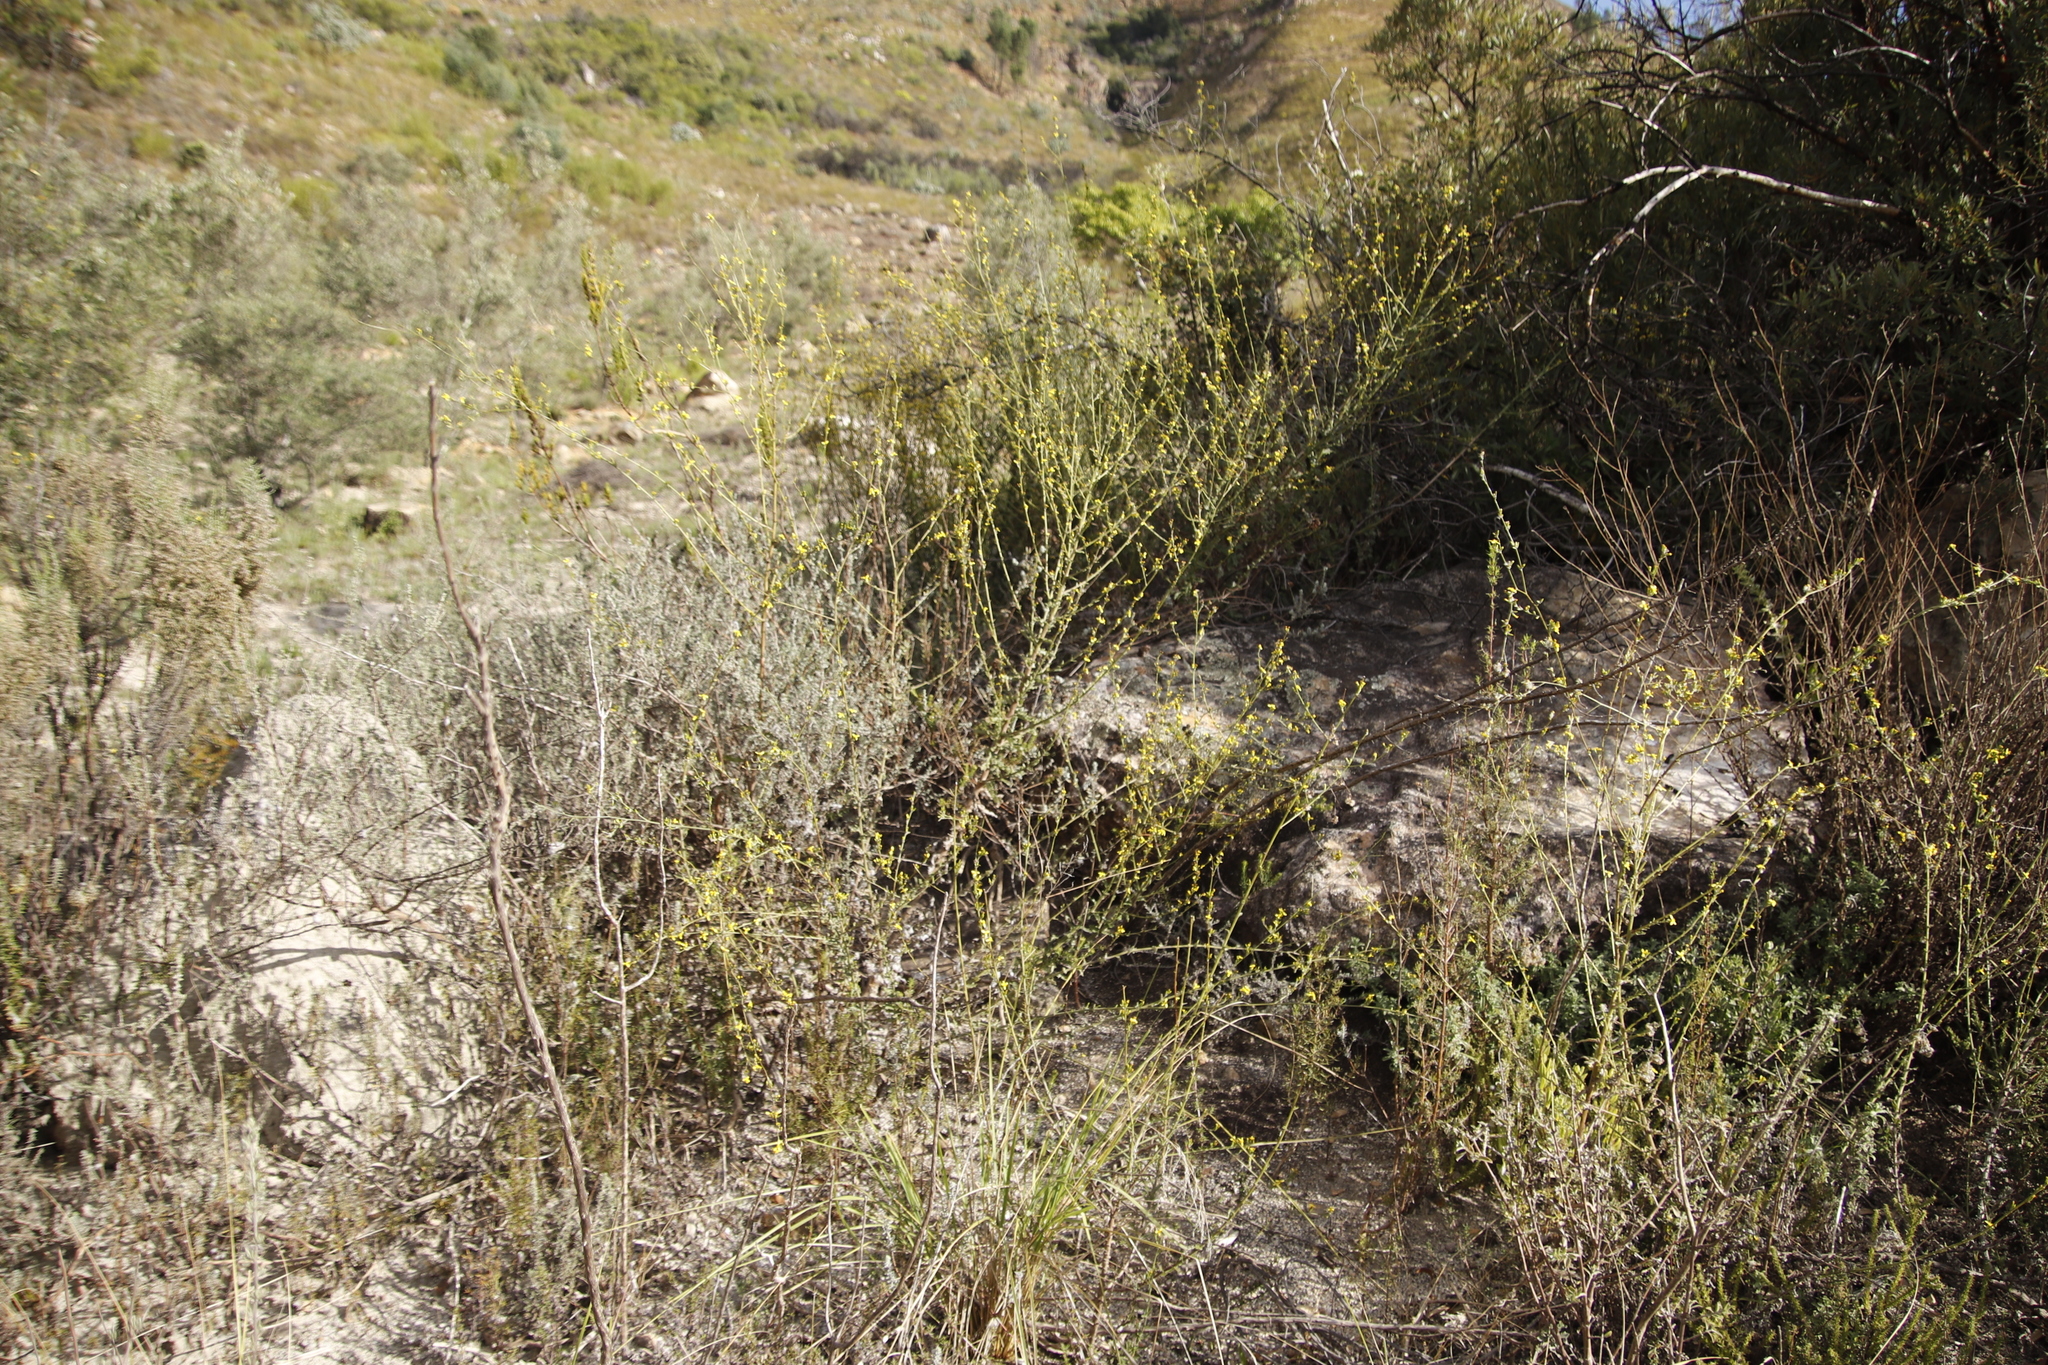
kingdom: Plantae
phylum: Tracheophyta
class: Magnoliopsida
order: Asterales
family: Asteraceae
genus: Senecio
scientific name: Senecio pubigerus
